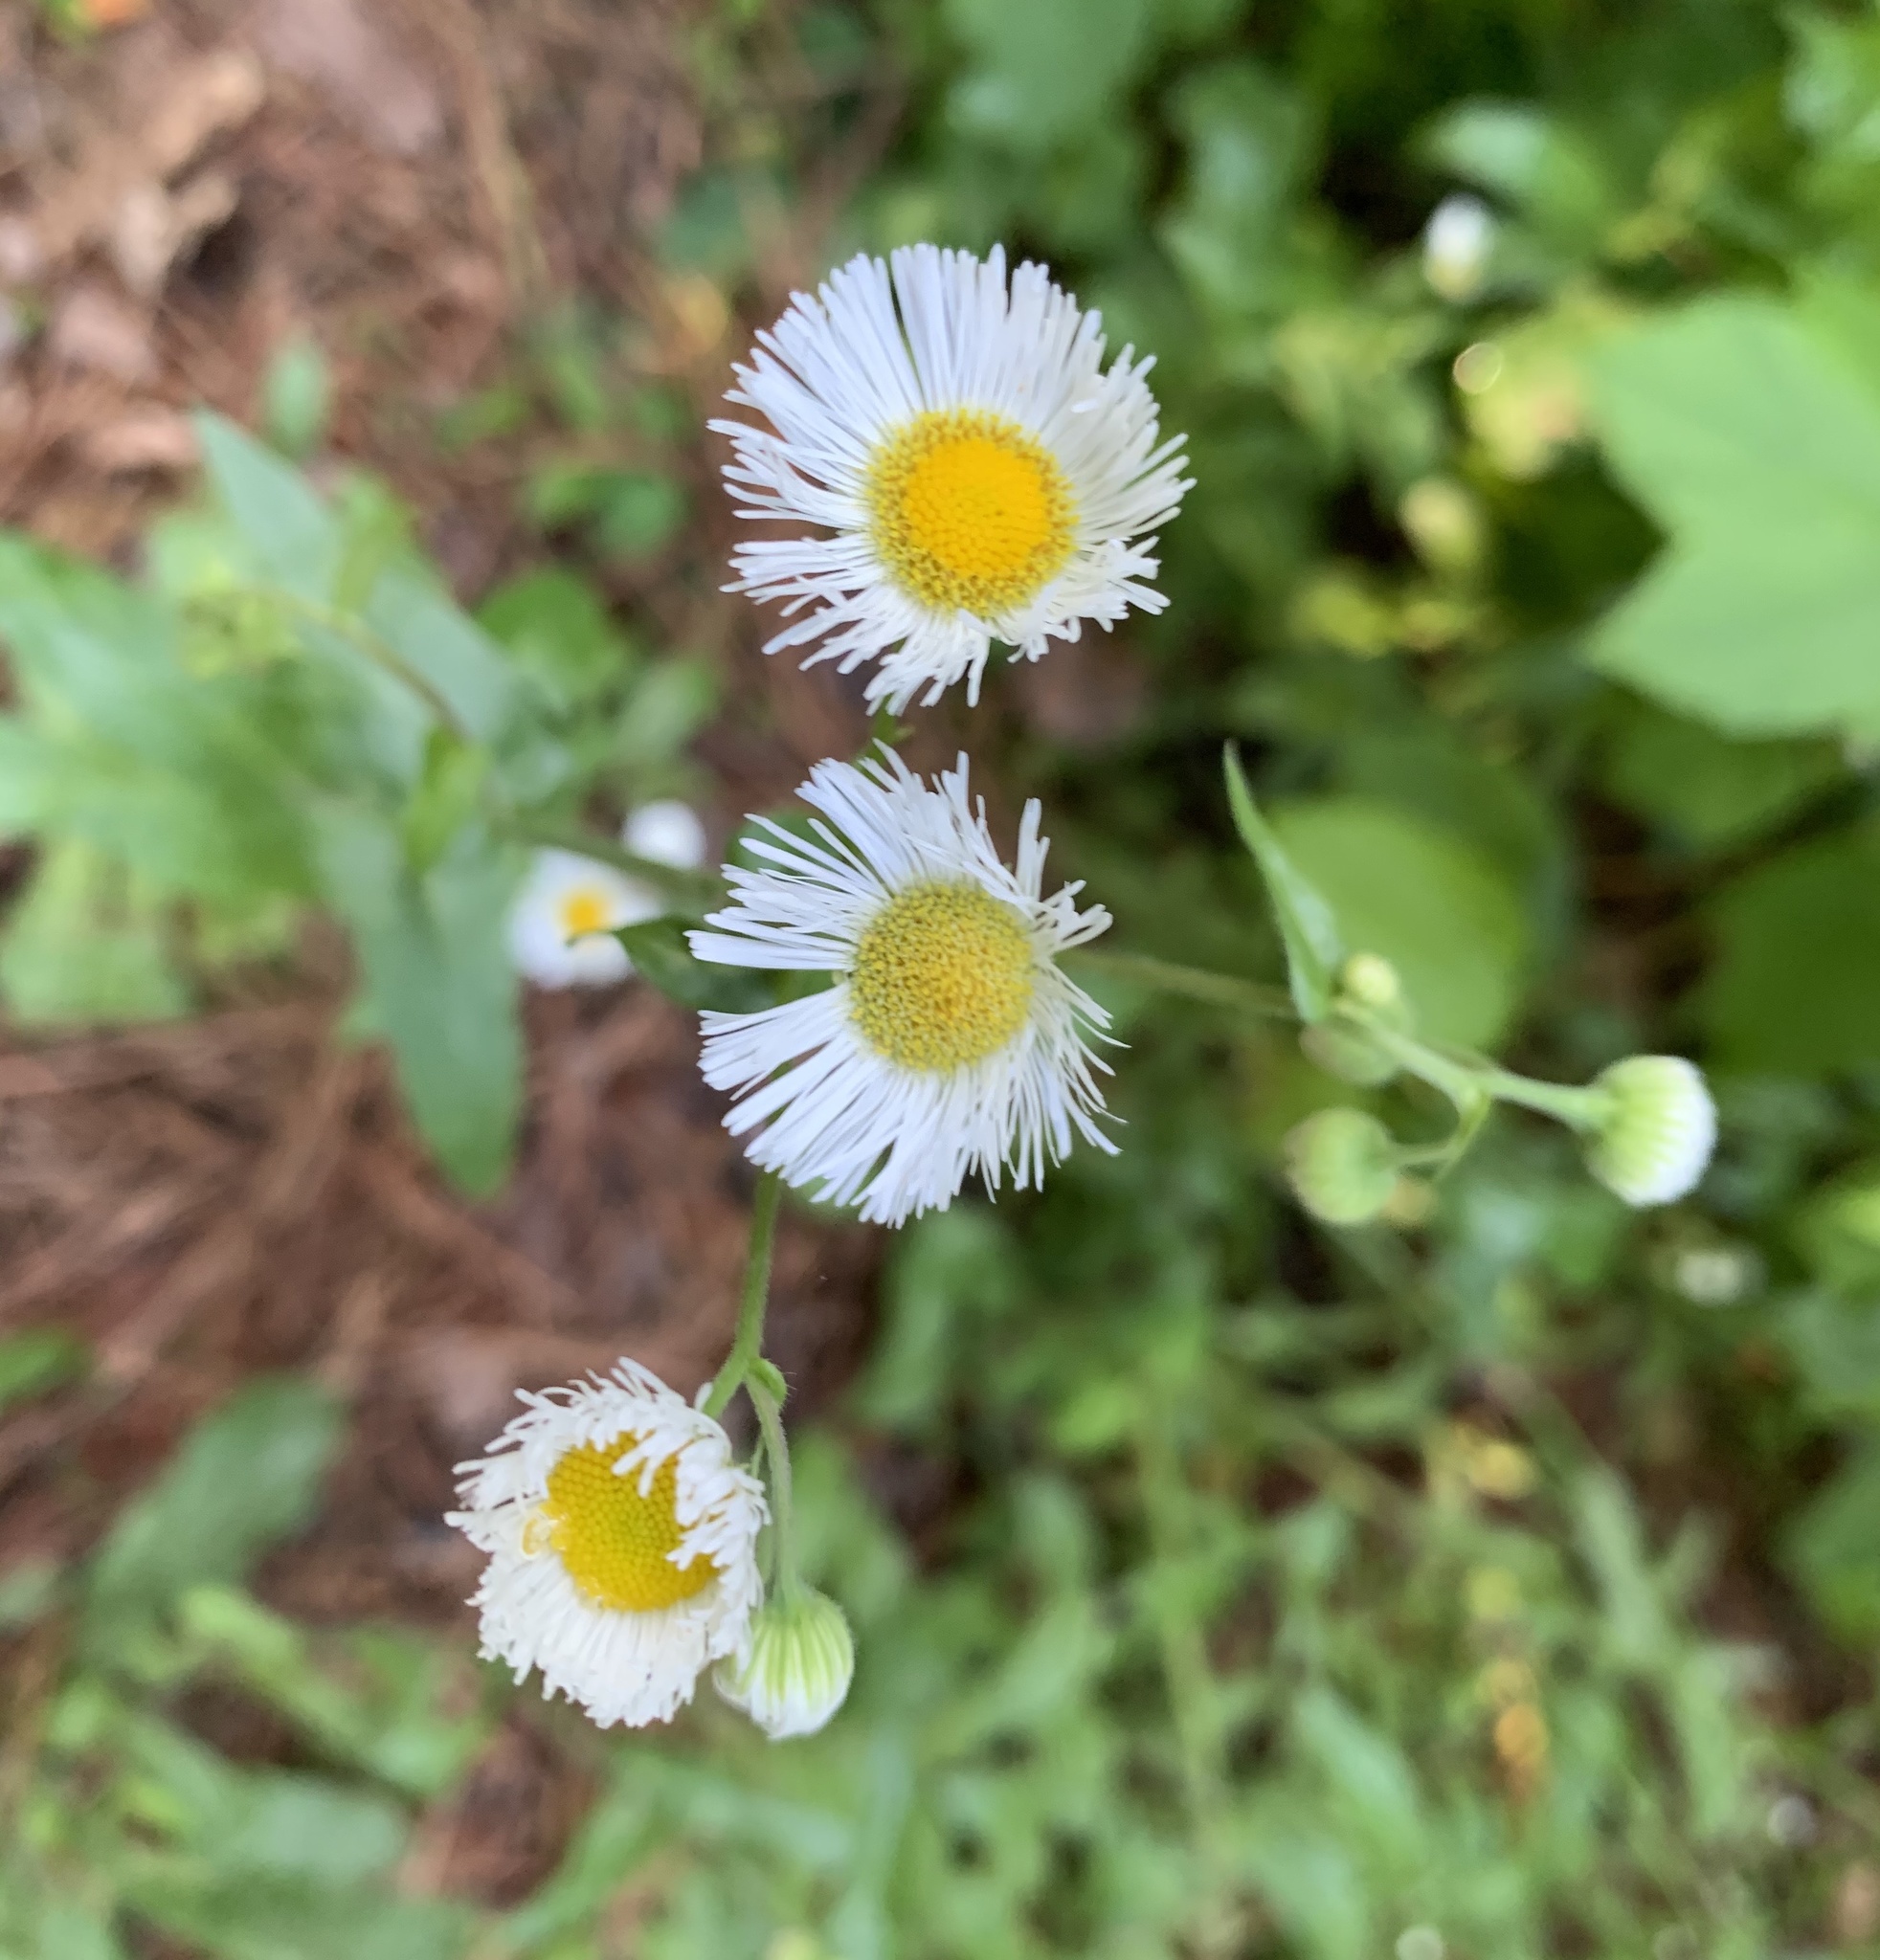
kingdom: Plantae
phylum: Tracheophyta
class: Magnoliopsida
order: Asterales
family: Asteraceae
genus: Erigeron
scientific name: Erigeron philadelphicus
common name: Robin's-plantain
